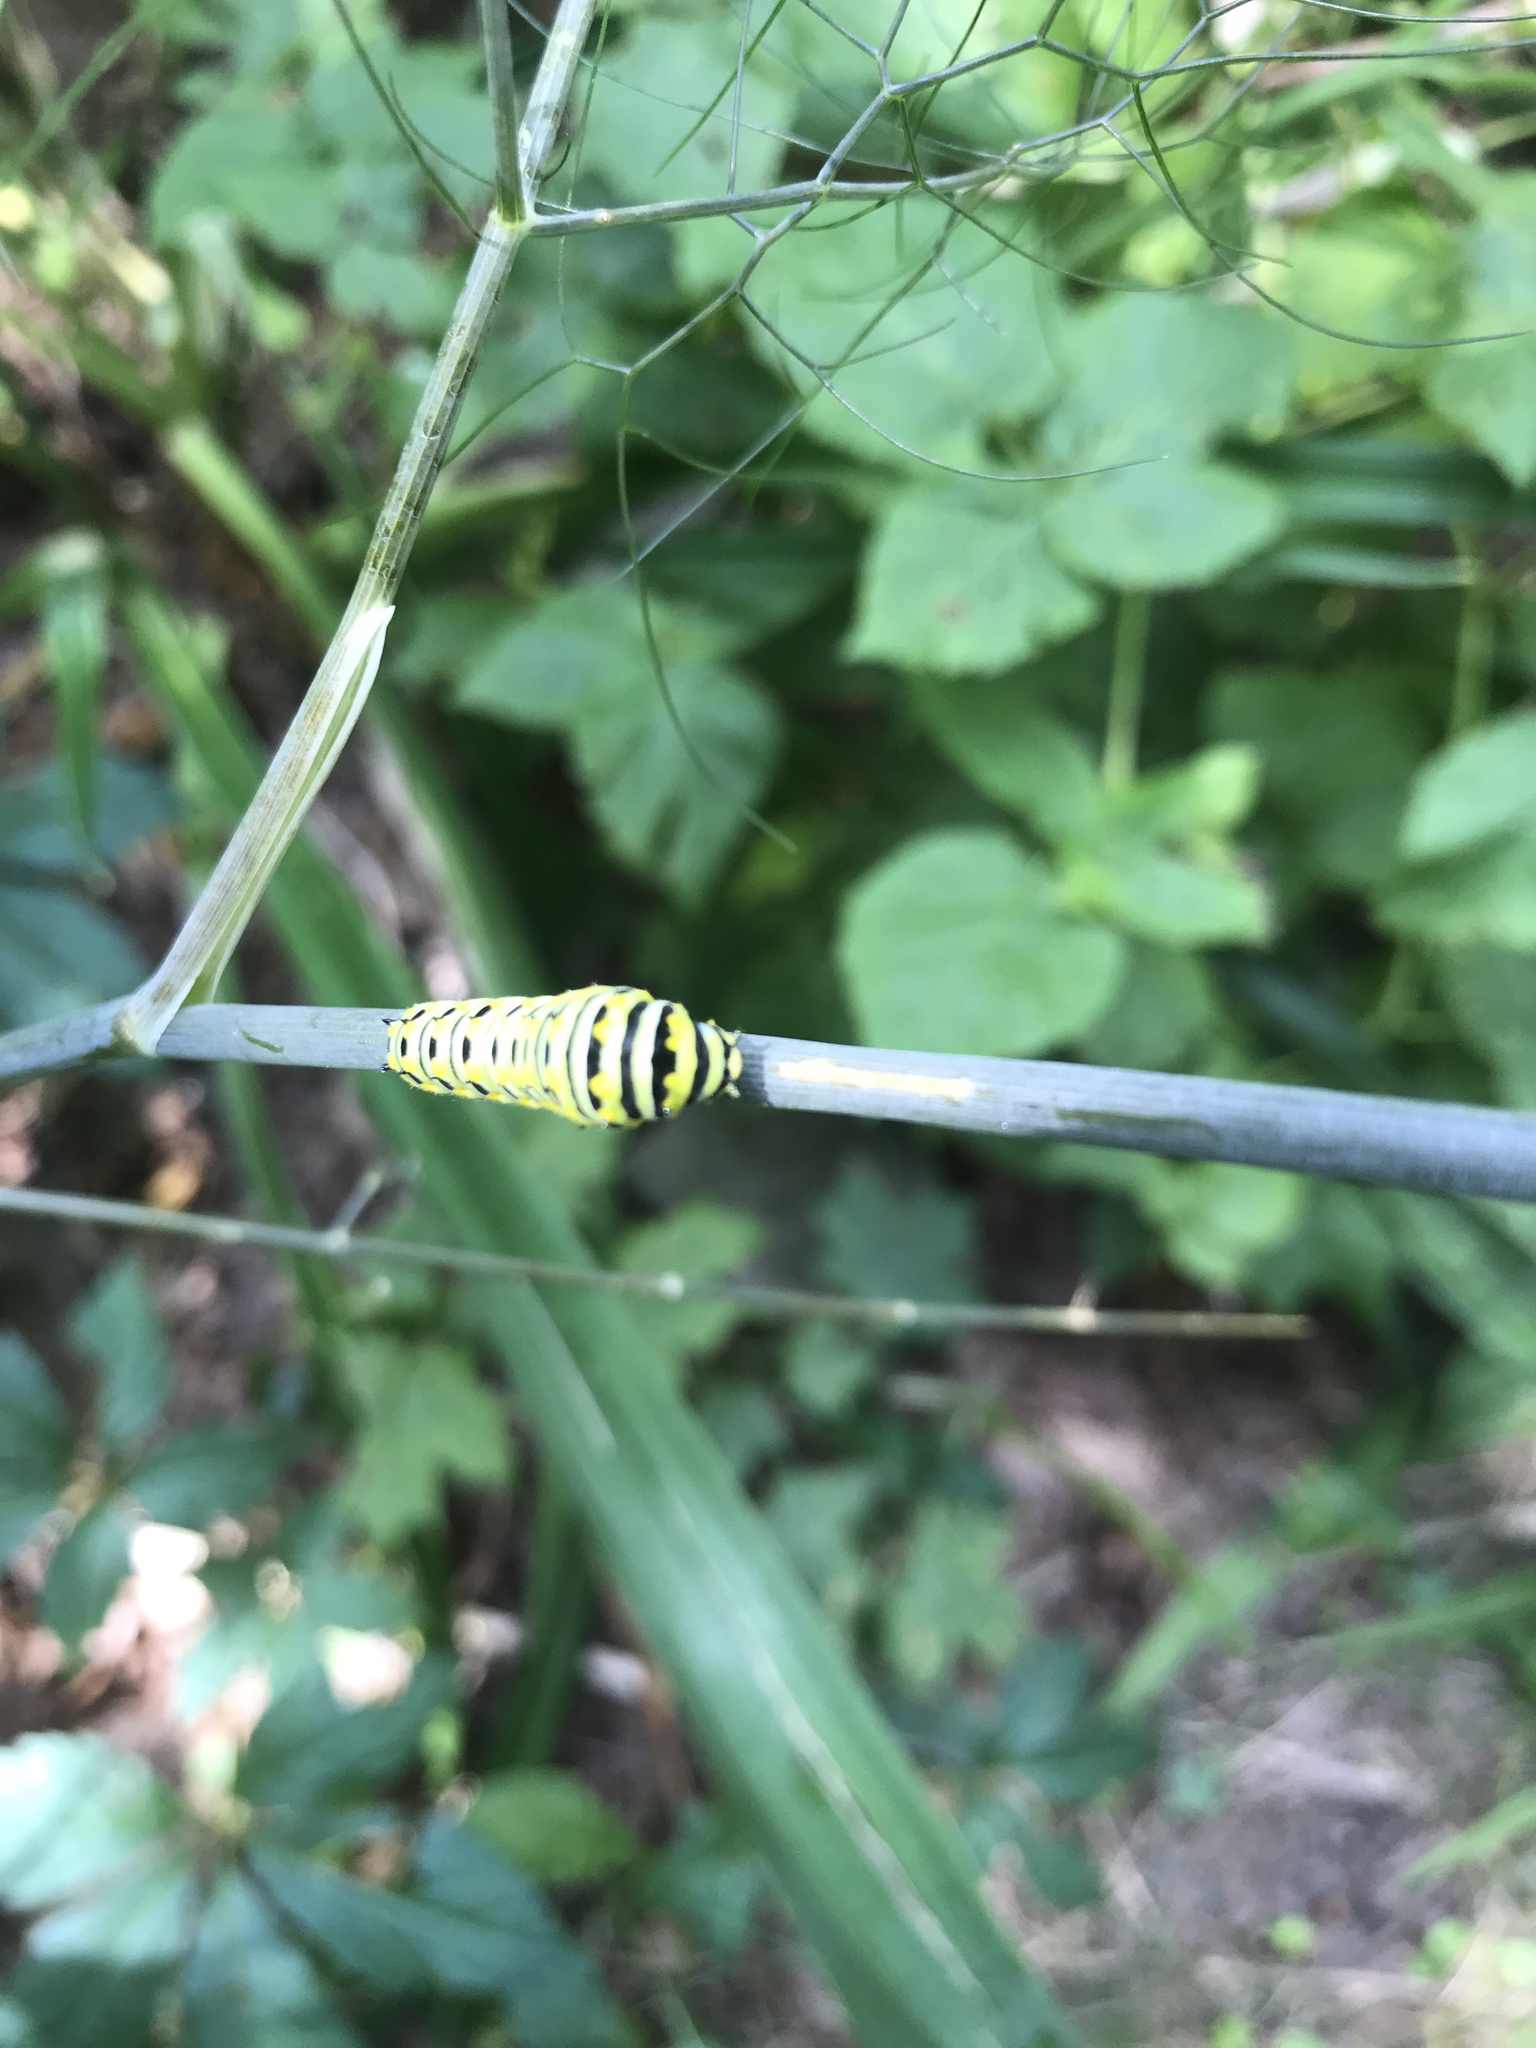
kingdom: Animalia
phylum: Arthropoda
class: Insecta
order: Lepidoptera
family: Papilionidae
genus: Papilio
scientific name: Papilio polyxenes
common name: Black swallowtail
